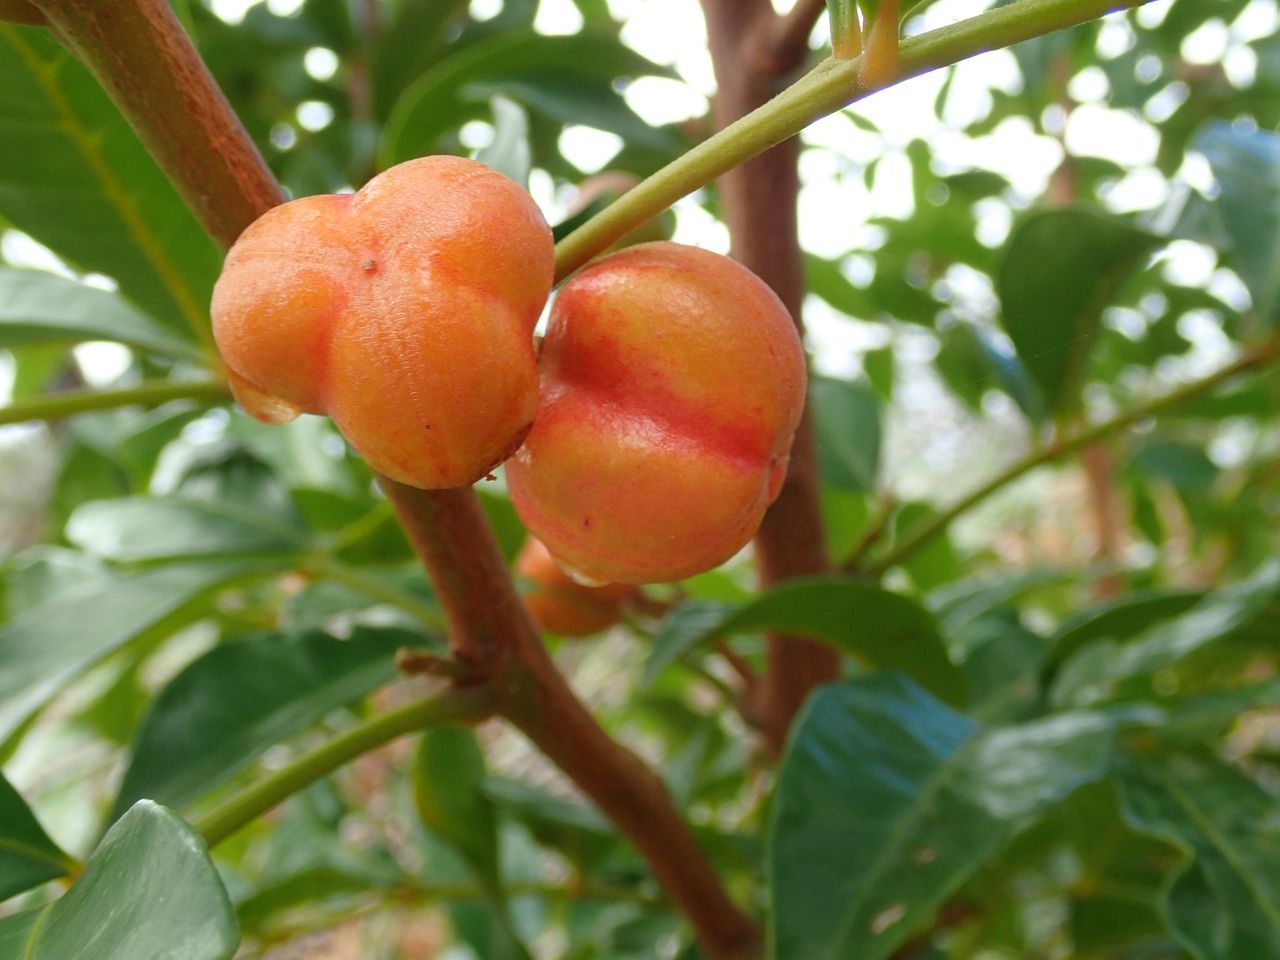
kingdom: Plantae
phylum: Tracheophyta
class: Magnoliopsida
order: Sapindales
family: Meliaceae
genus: Synoum
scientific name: Synoum glandulosum
